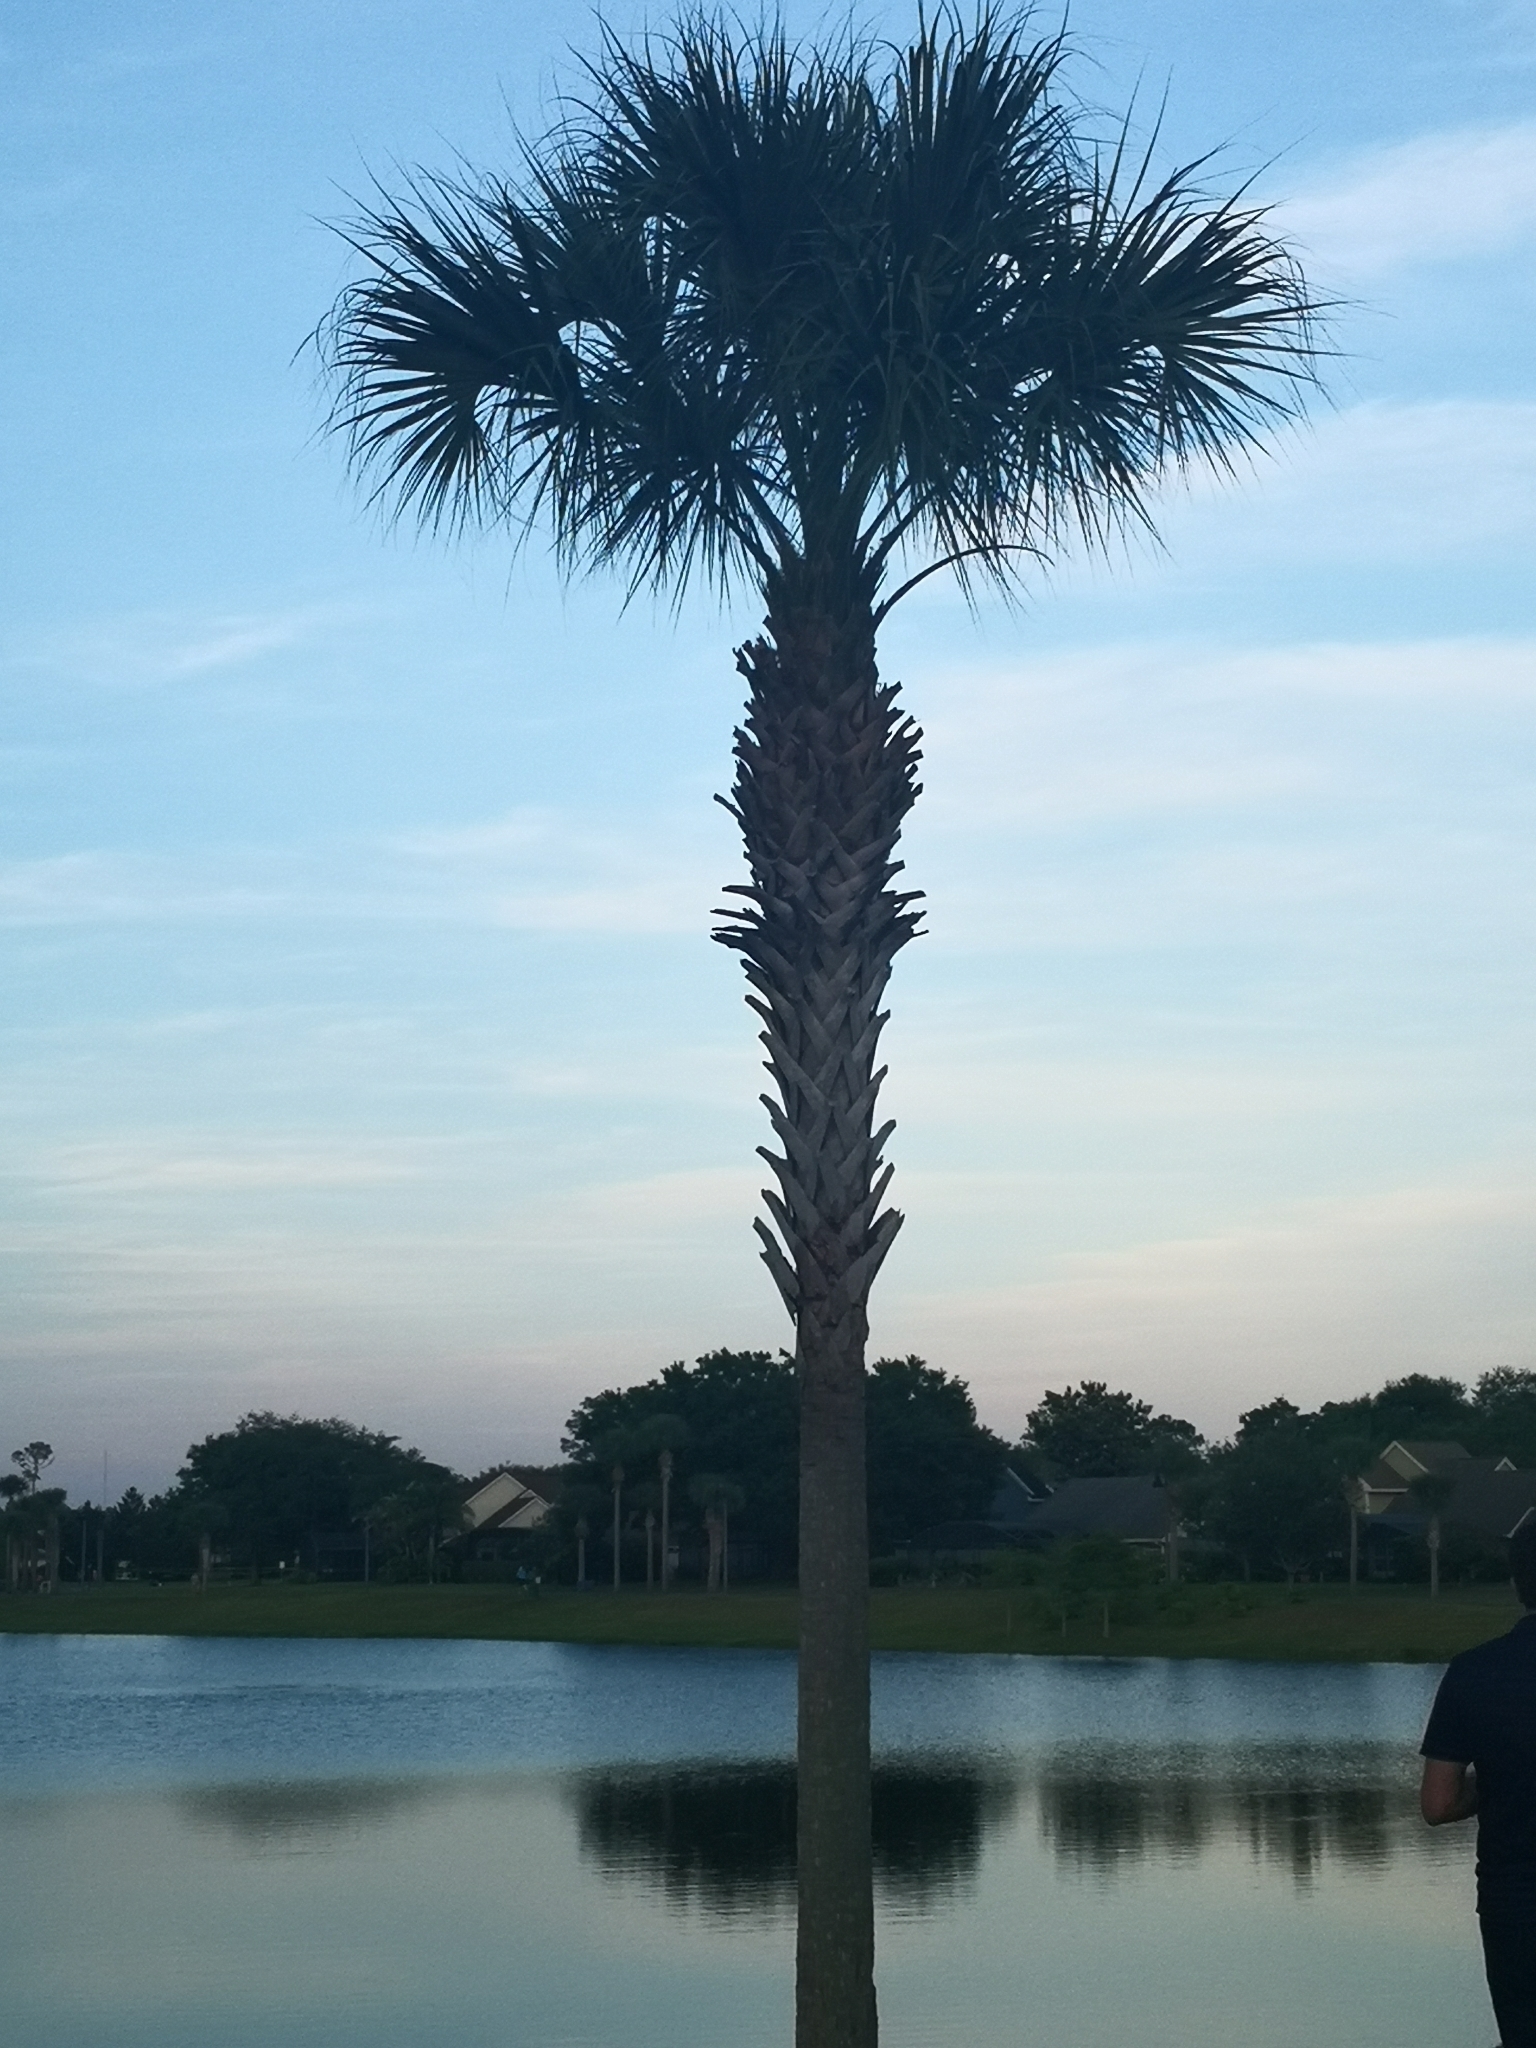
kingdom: Plantae
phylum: Tracheophyta
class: Liliopsida
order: Arecales
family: Arecaceae
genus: Sabal
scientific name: Sabal palmetto
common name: Blue palmetto
